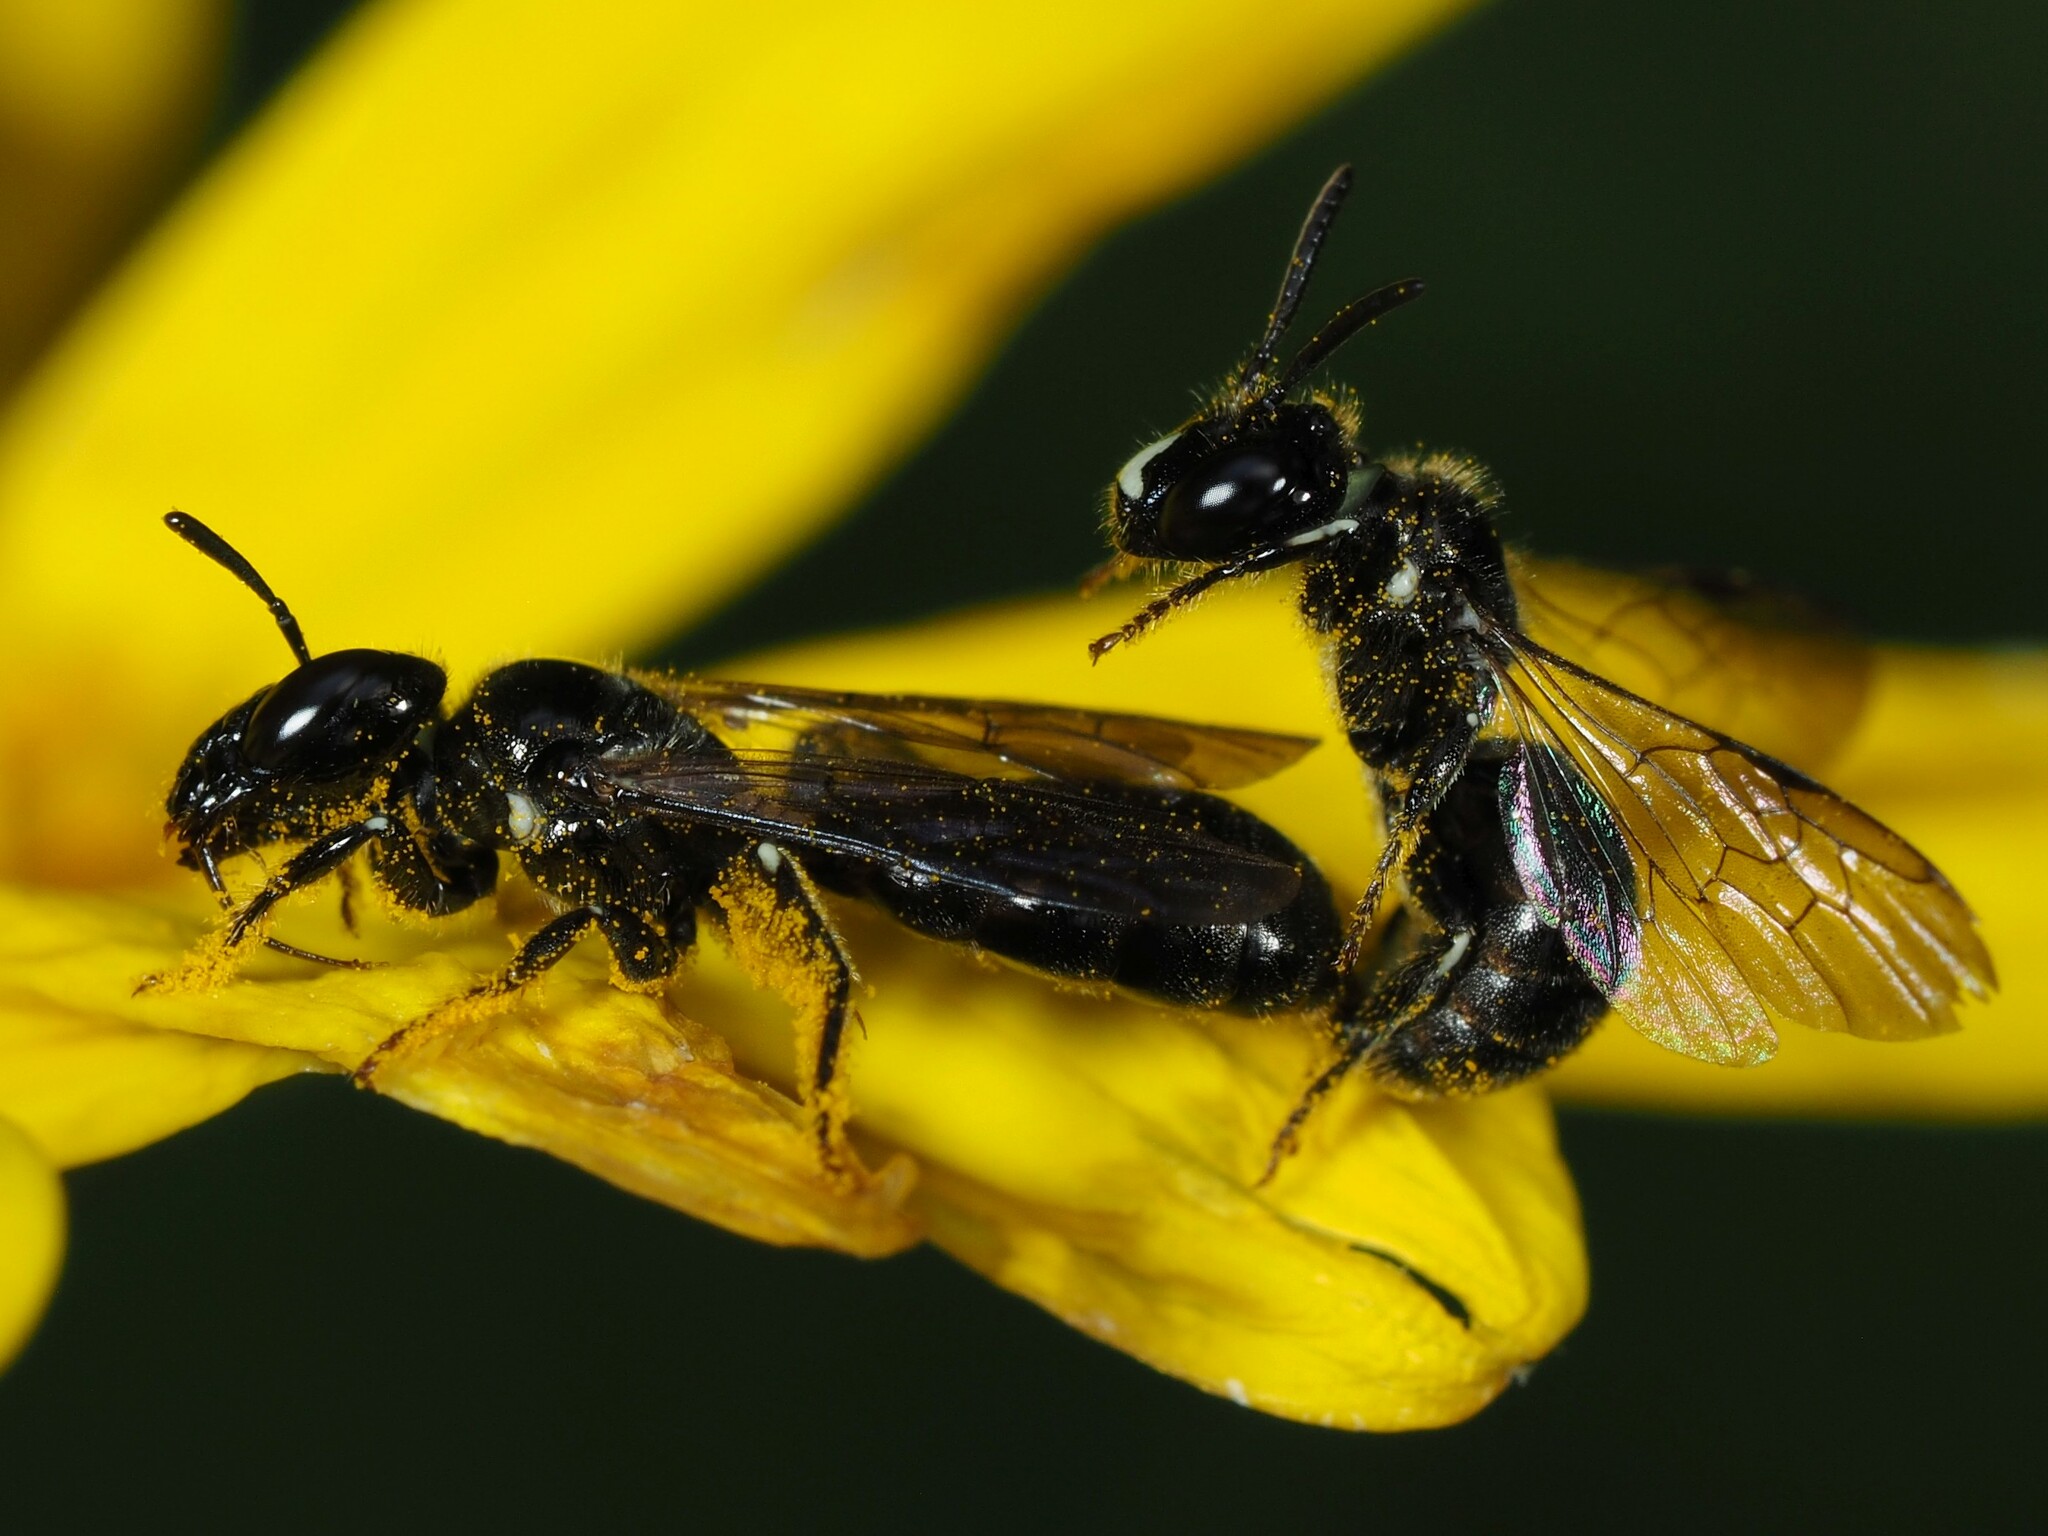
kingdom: Animalia
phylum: Arthropoda
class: Insecta
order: Hymenoptera
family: Apidae
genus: Ceratina
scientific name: Ceratina cucurbitina
